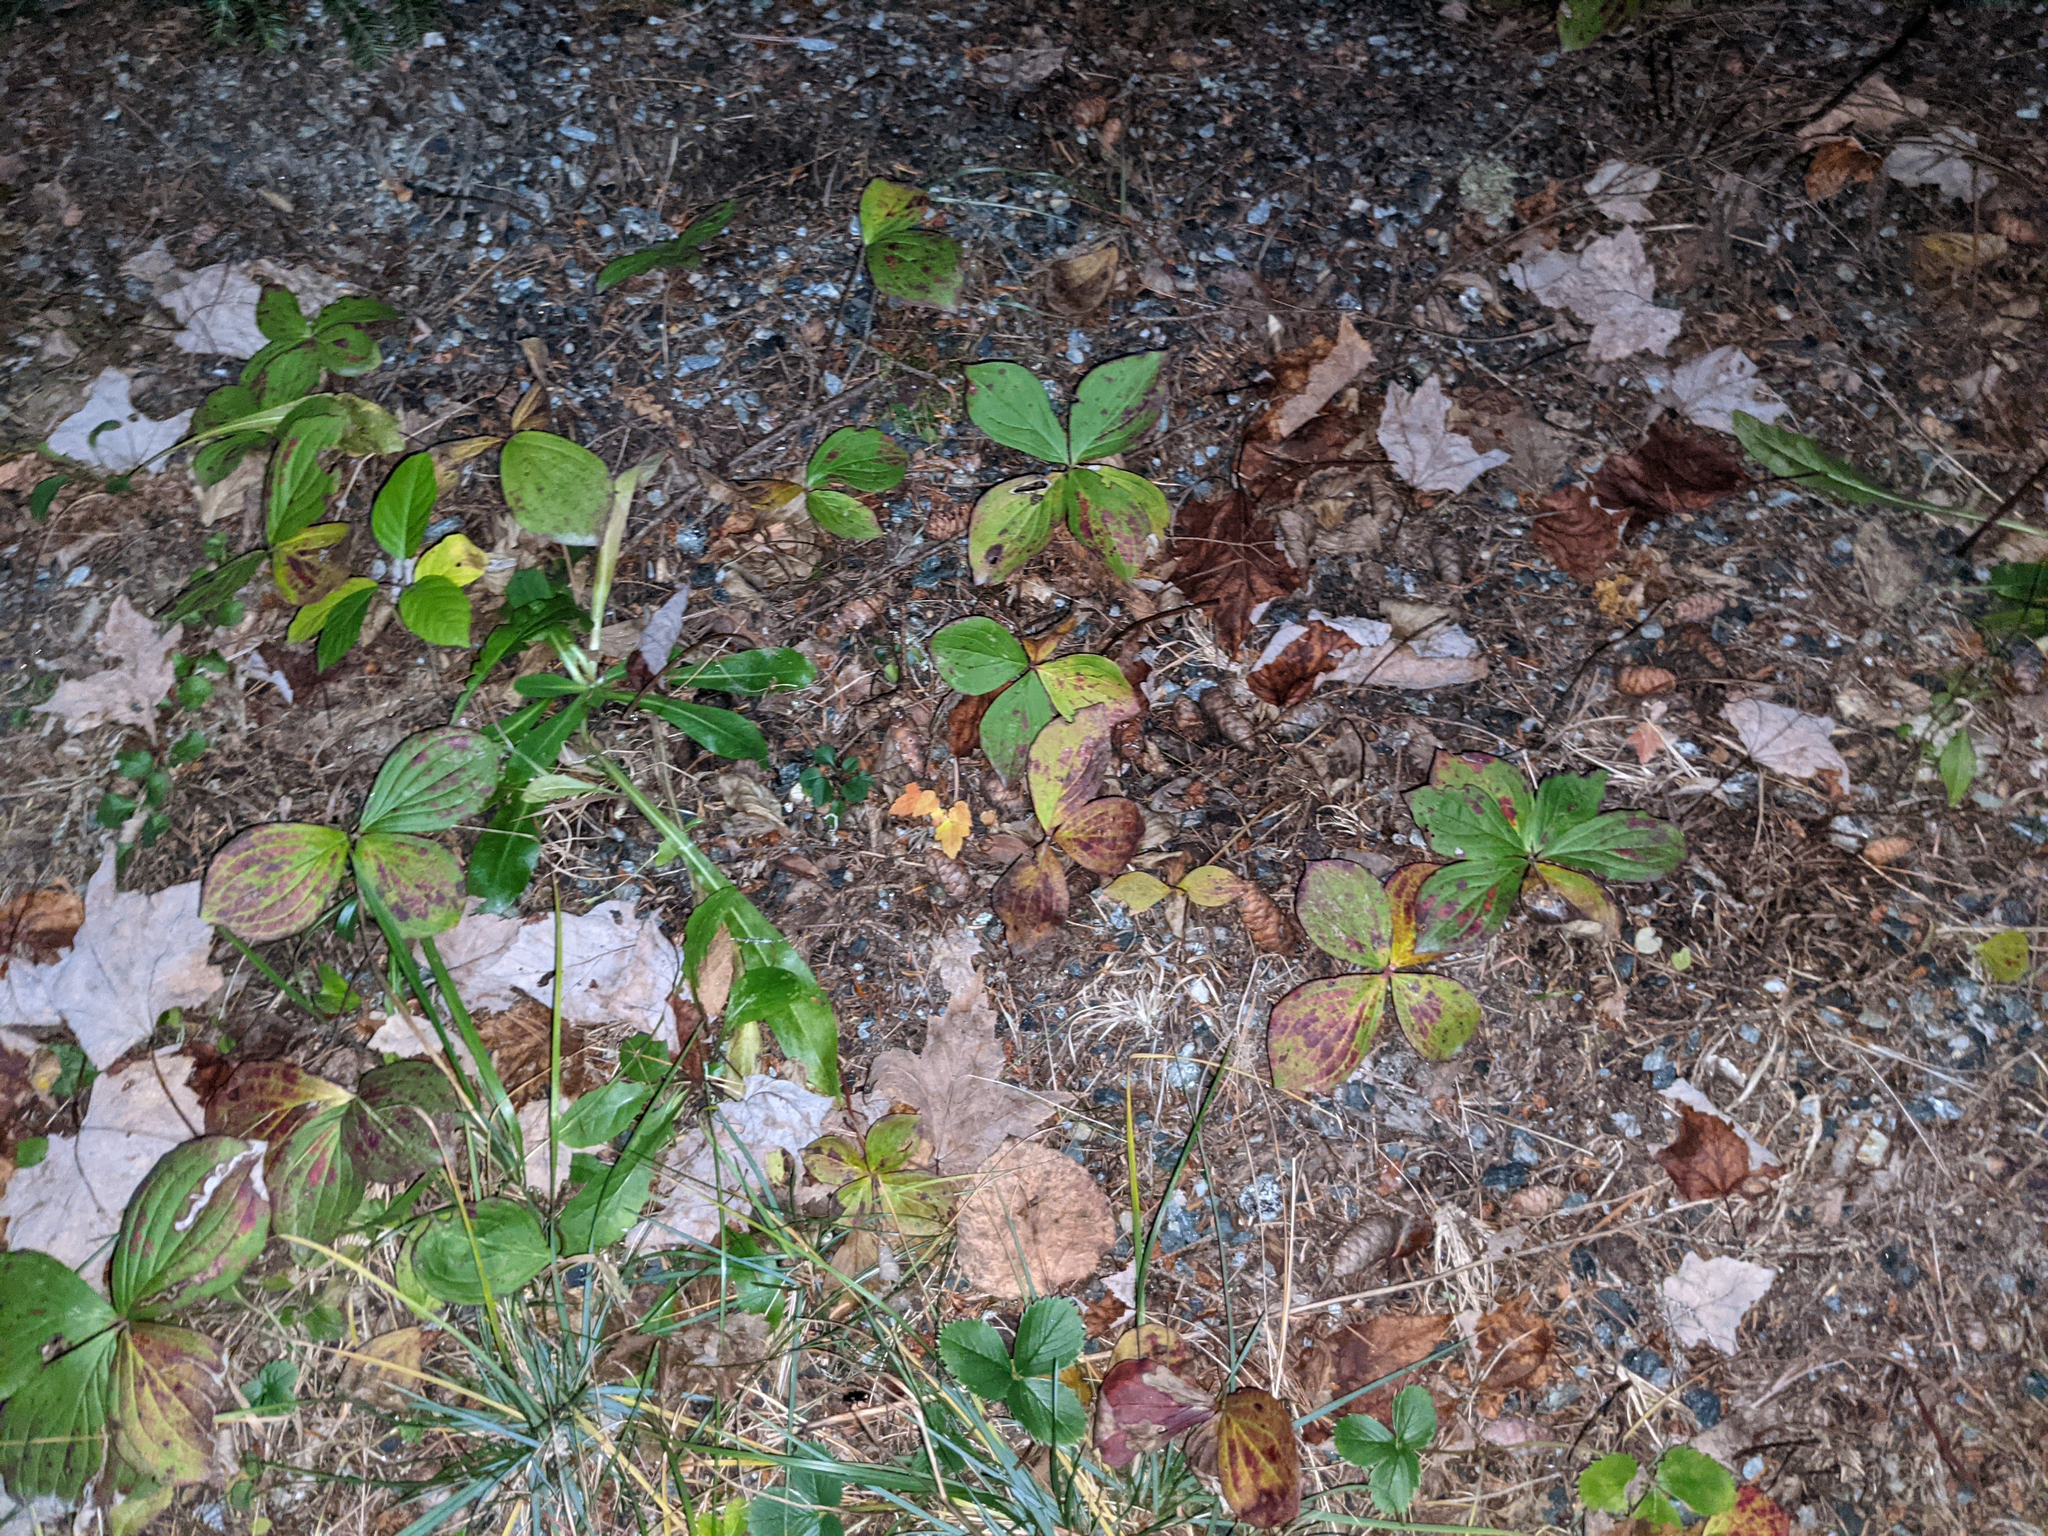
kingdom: Plantae
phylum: Tracheophyta
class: Magnoliopsida
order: Cornales
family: Cornaceae
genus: Cornus
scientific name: Cornus canadensis
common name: Creeping dogwood
